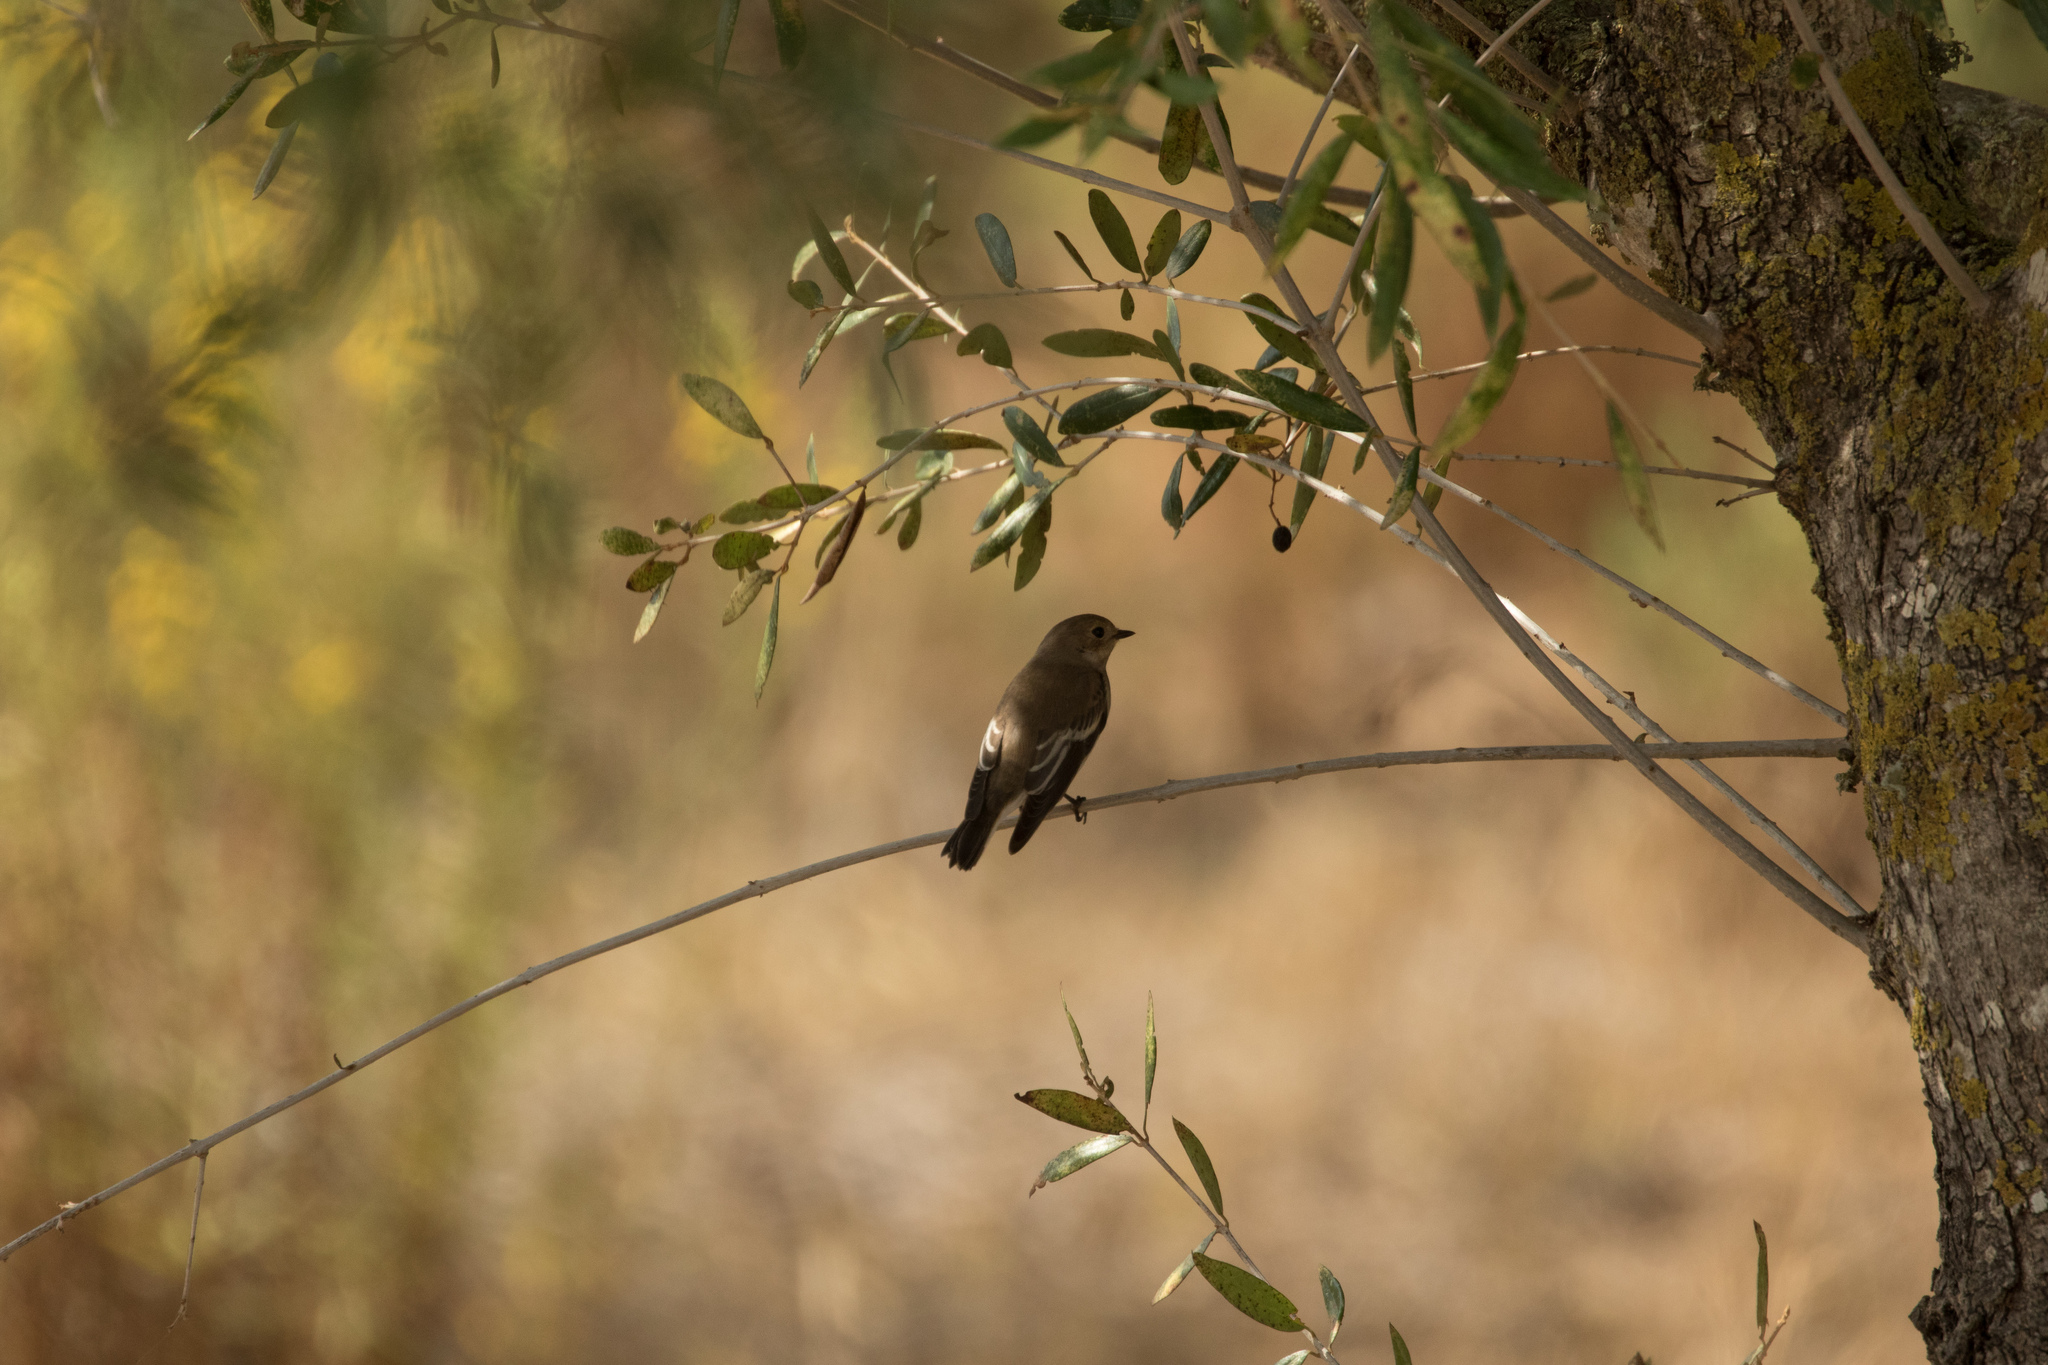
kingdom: Animalia
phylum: Chordata
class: Aves
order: Passeriformes
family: Muscicapidae
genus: Ficedula
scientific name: Ficedula hypoleuca
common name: European pied flycatcher
